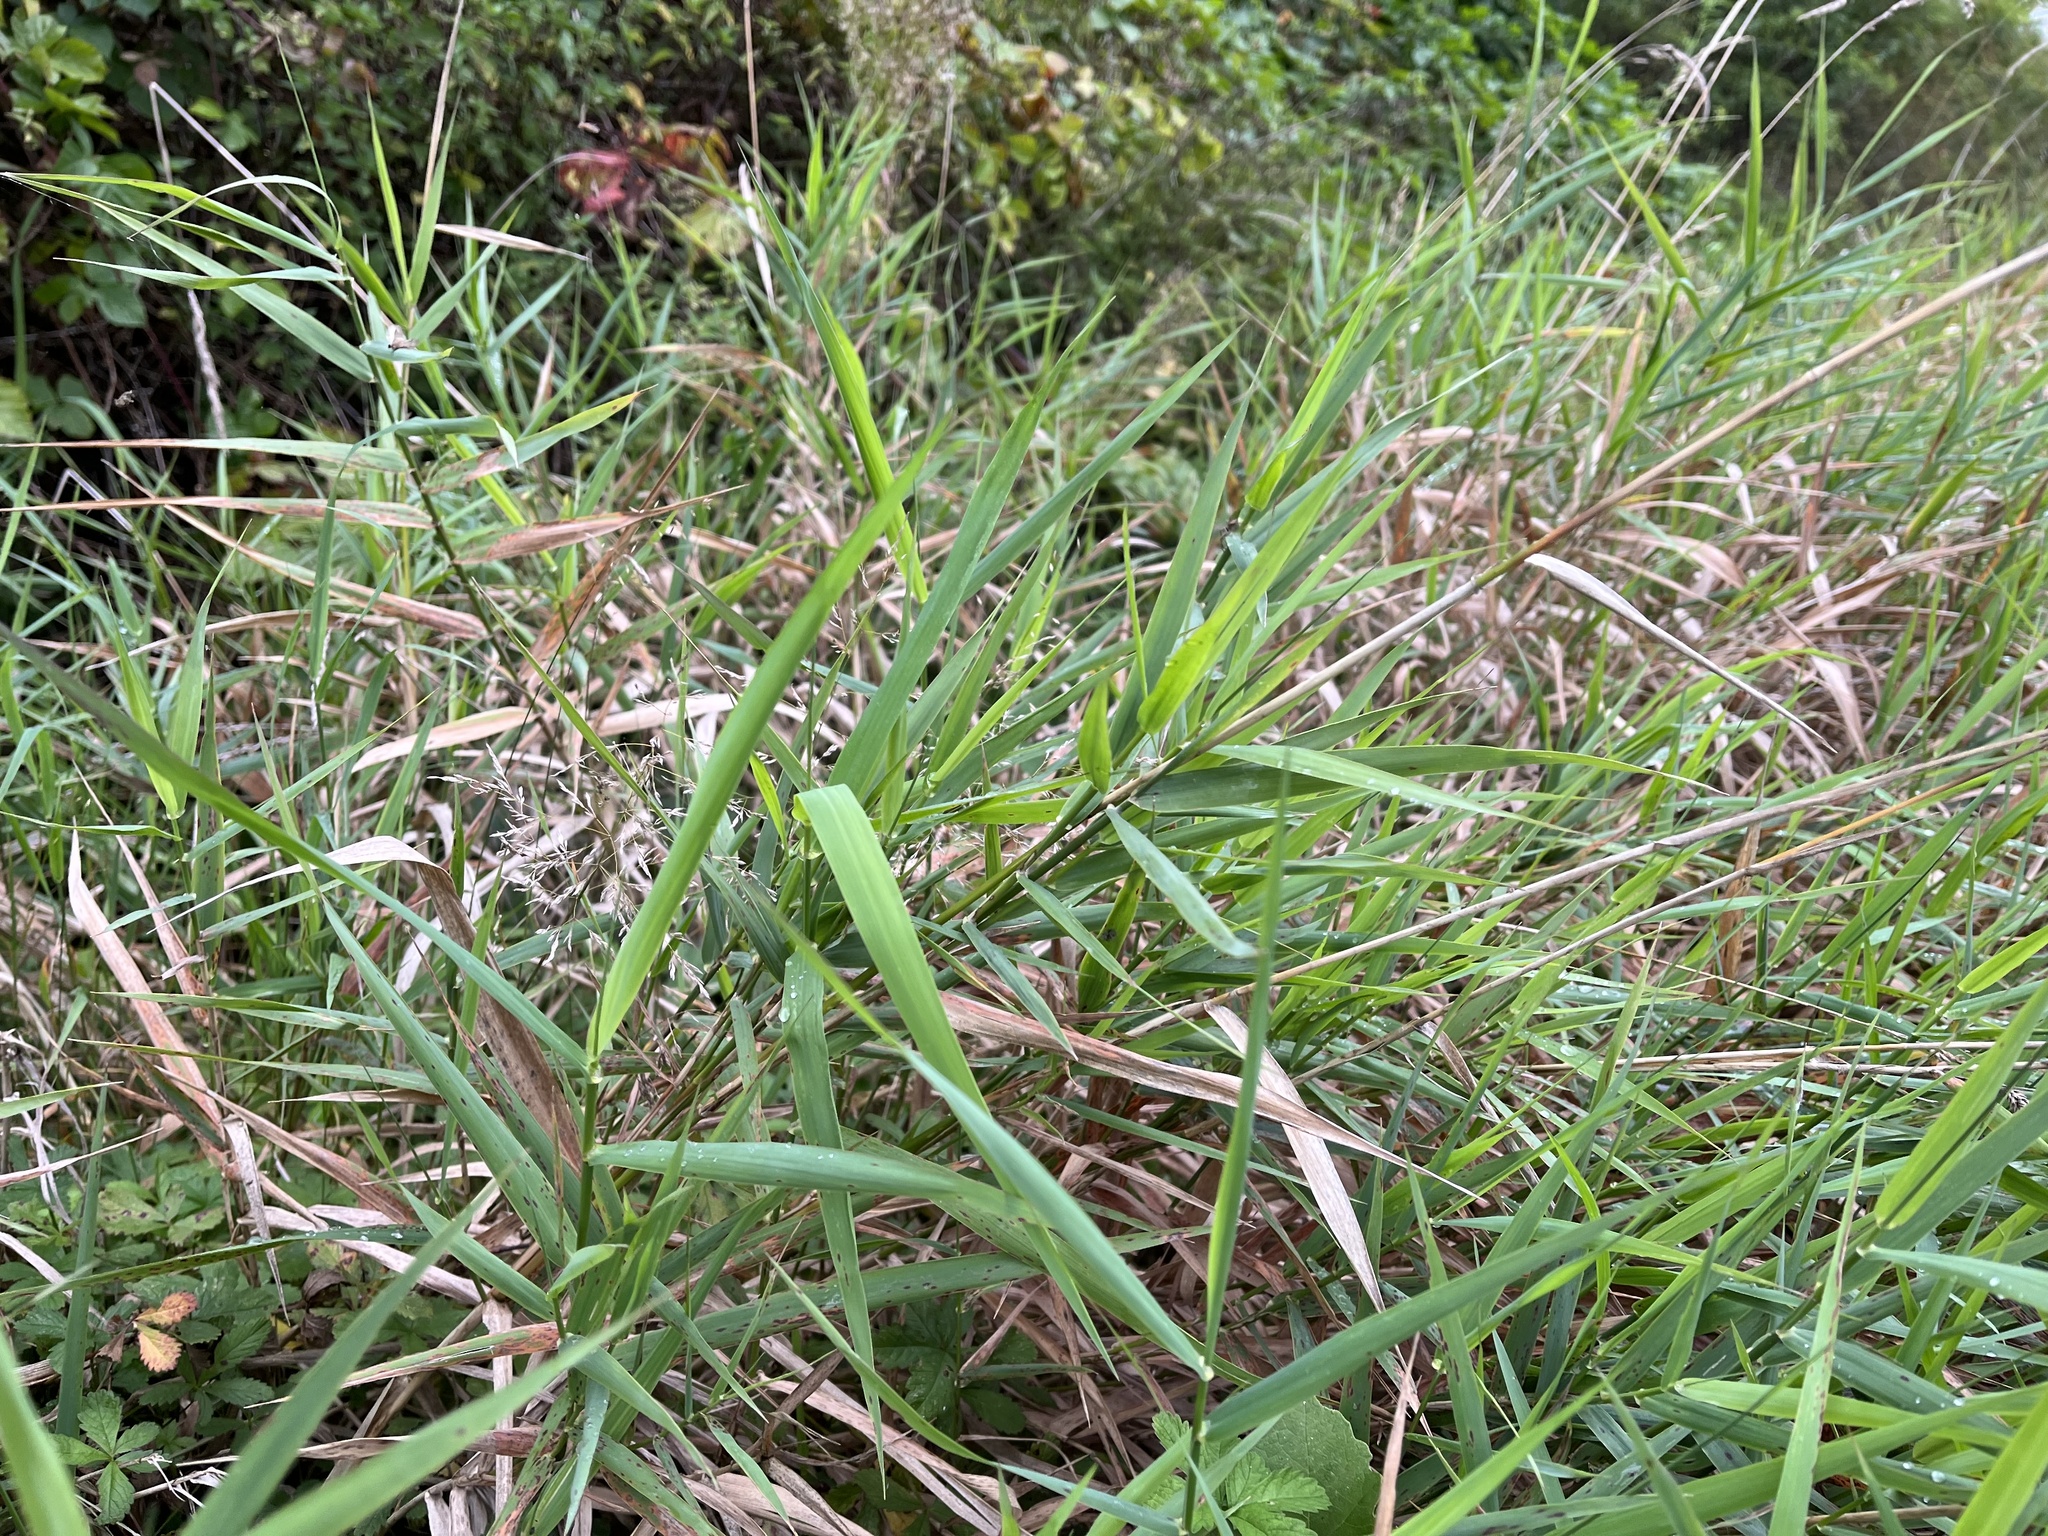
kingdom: Plantae
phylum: Tracheophyta
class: Liliopsida
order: Poales
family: Poaceae
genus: Phalaris
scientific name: Phalaris arundinacea
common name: Reed canary-grass
